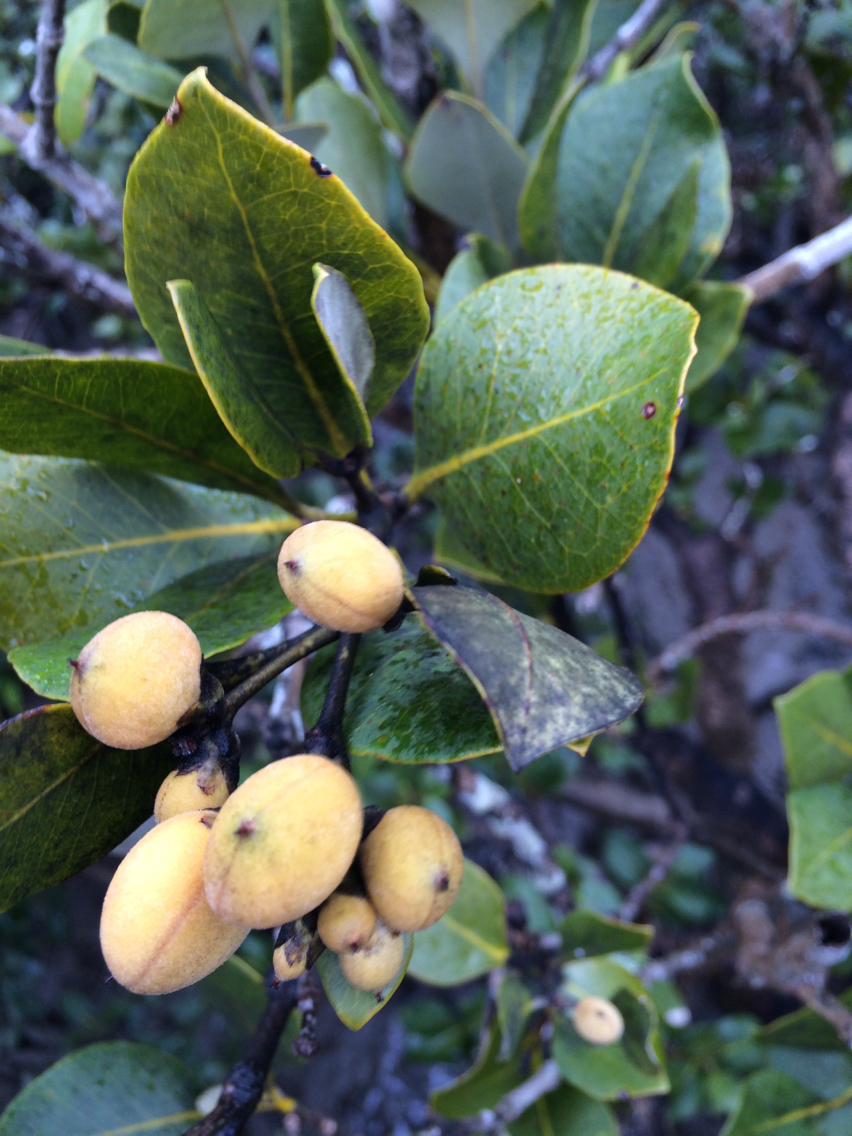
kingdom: Plantae
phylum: Tracheophyta
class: Magnoliopsida
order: Lamiales
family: Acanthaceae
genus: Avicennia
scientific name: Avicennia marina
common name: Gray mangrove
